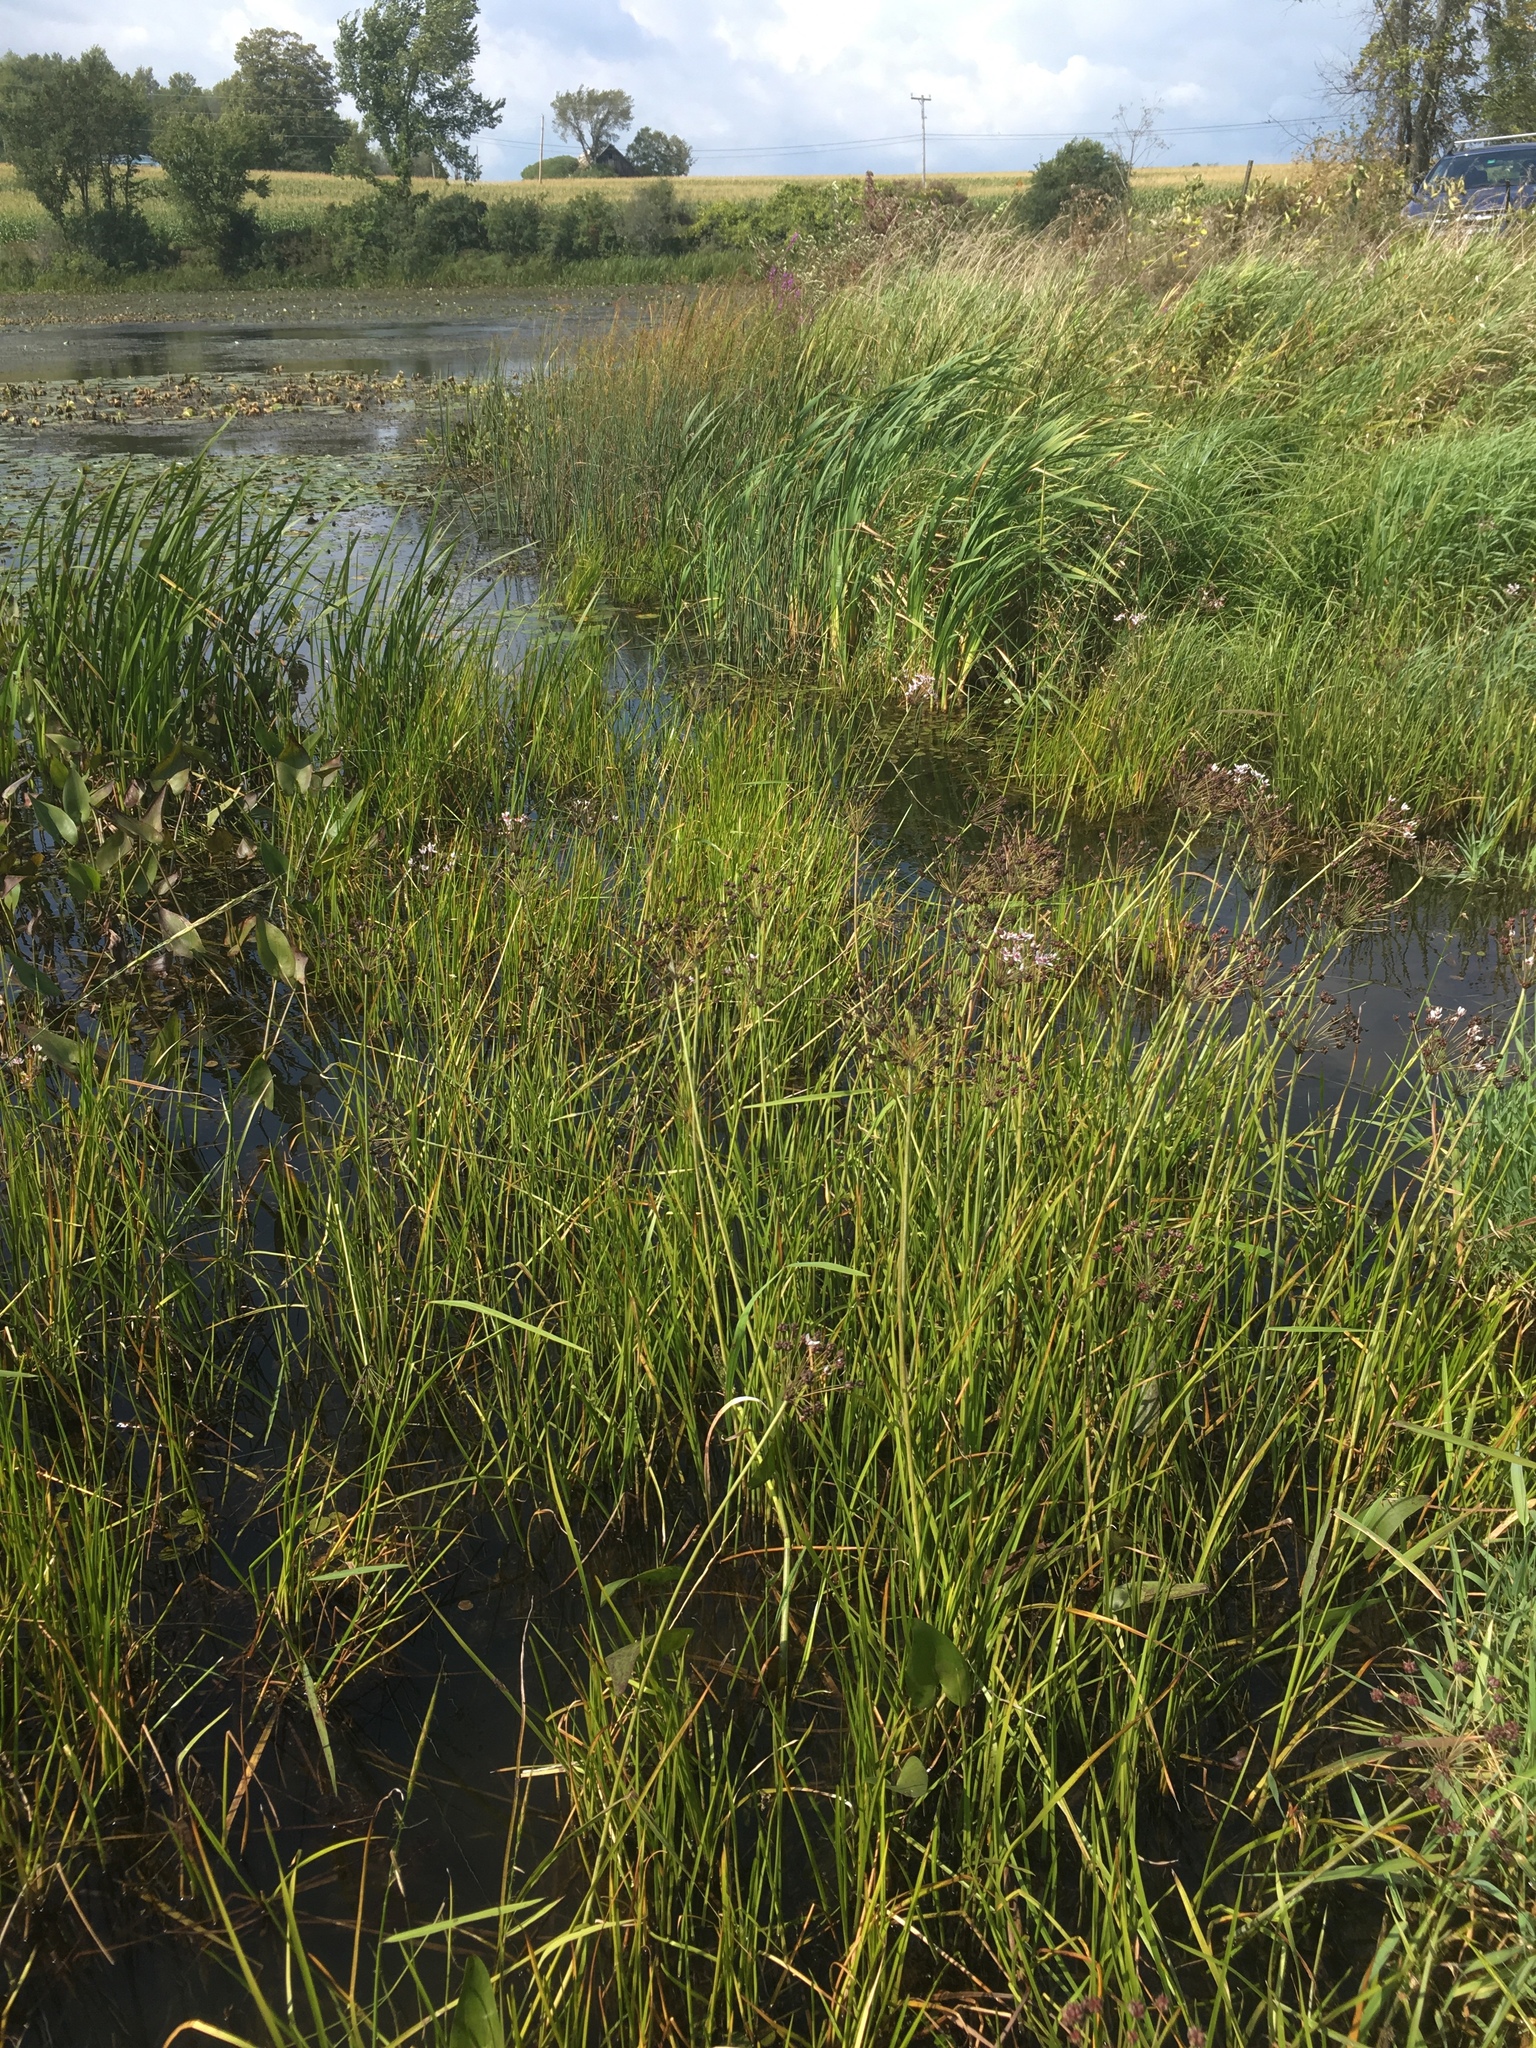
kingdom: Plantae
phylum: Tracheophyta
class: Liliopsida
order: Alismatales
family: Butomaceae
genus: Butomus
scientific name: Butomus umbellatus
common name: Flowering-rush
